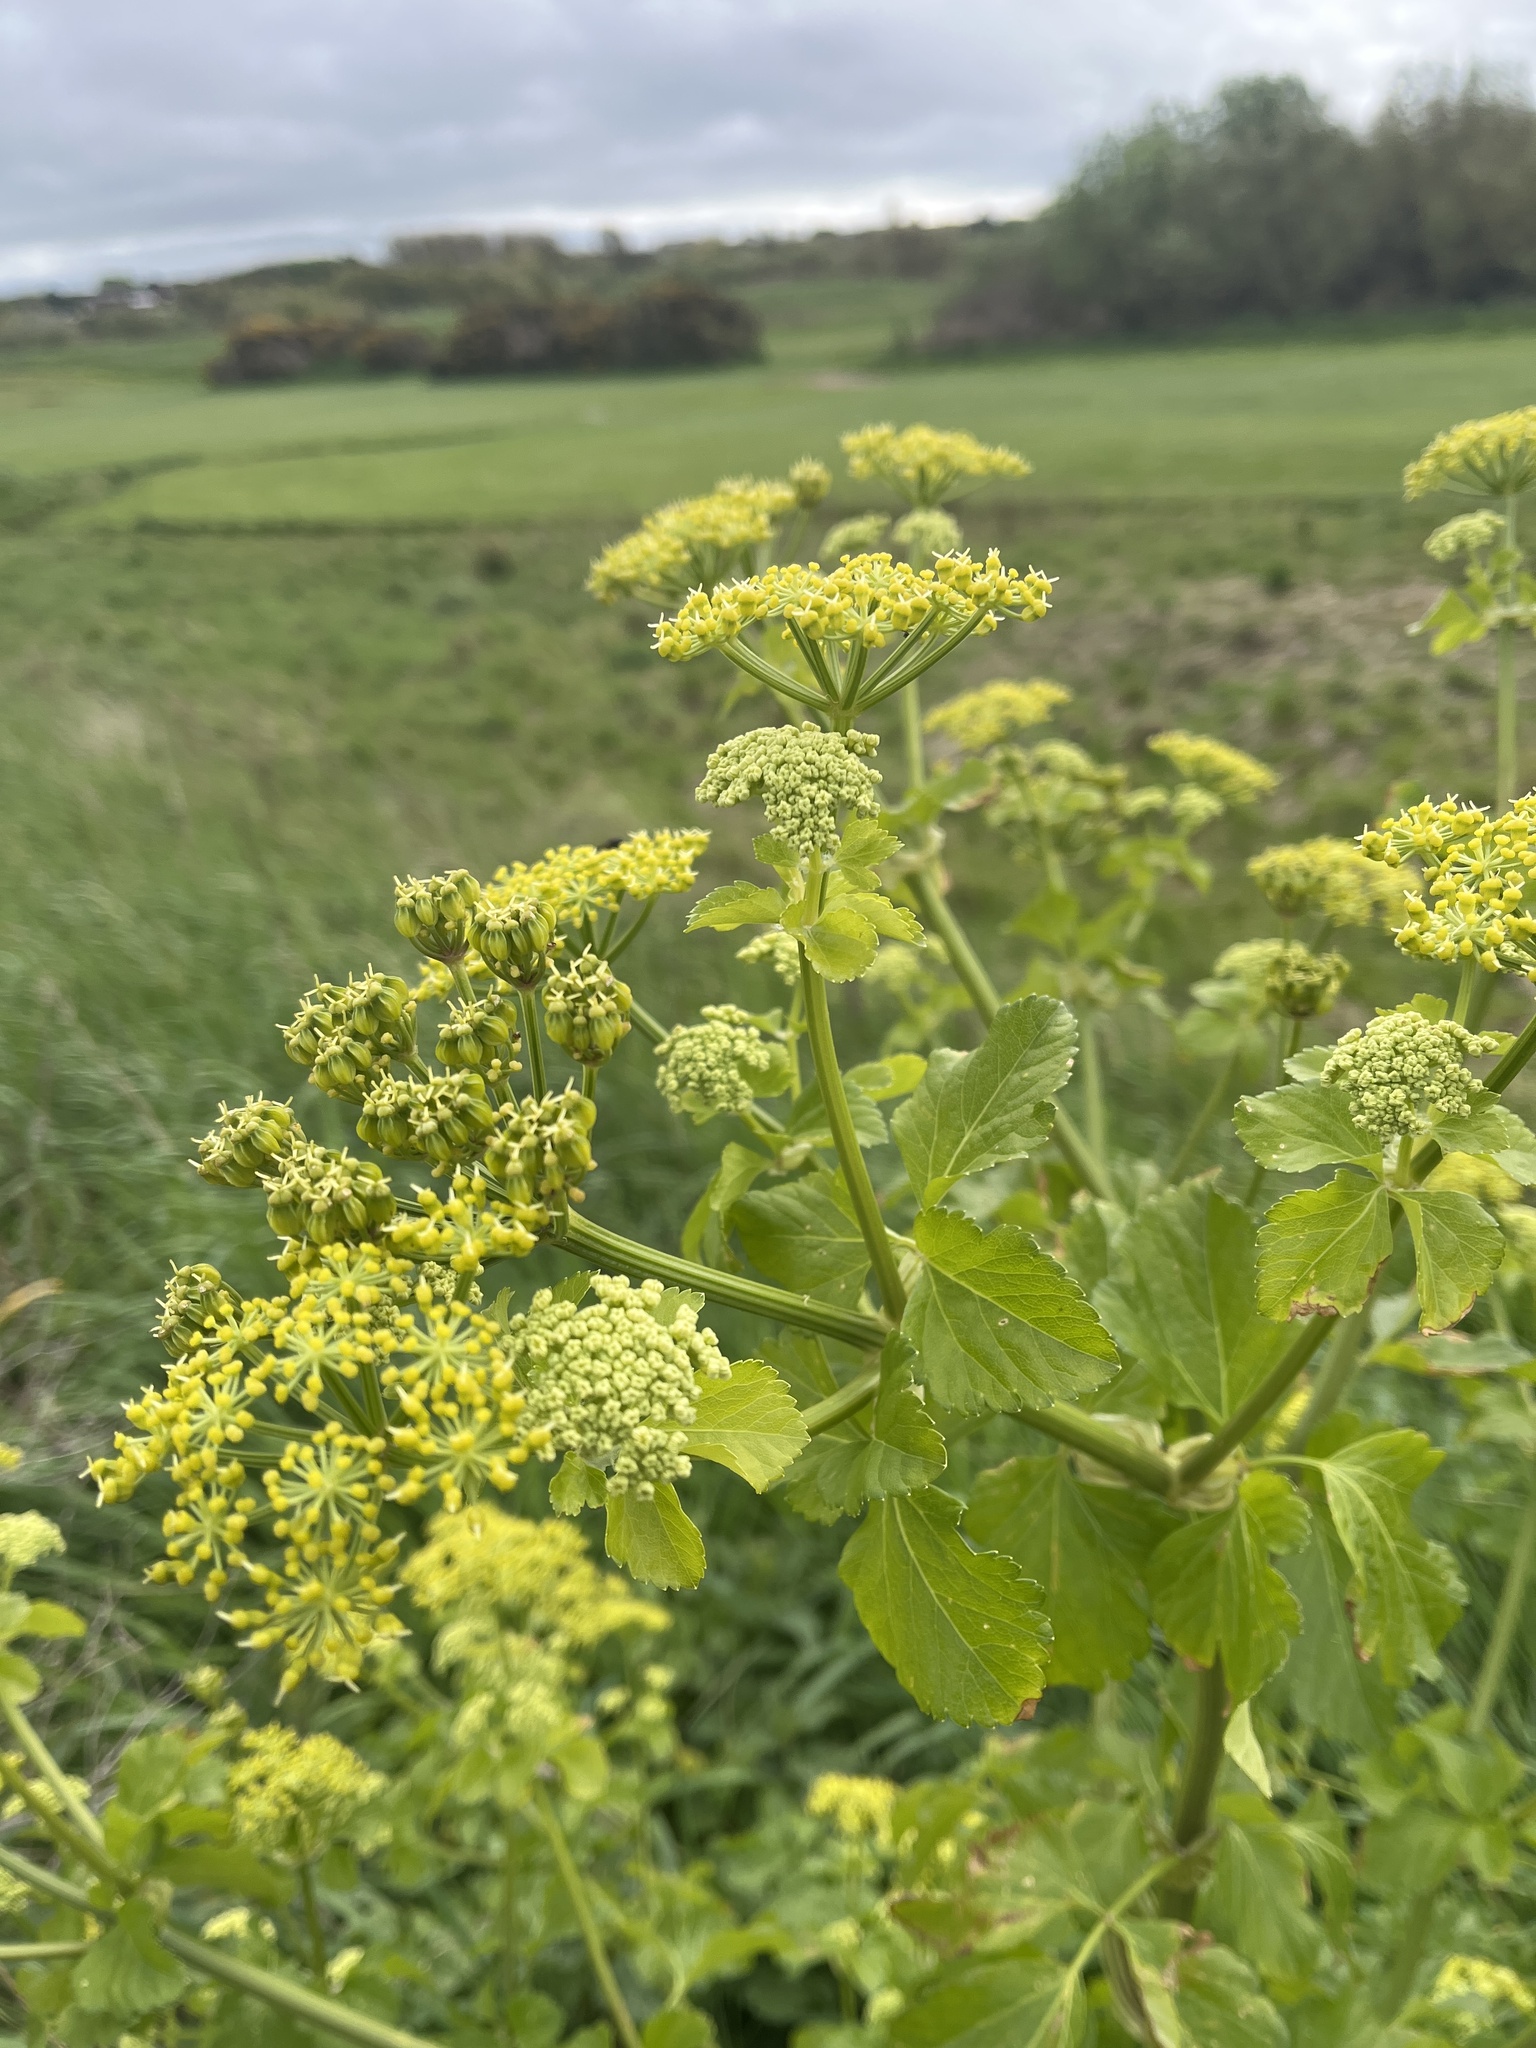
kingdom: Plantae
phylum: Tracheophyta
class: Magnoliopsida
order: Apiales
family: Apiaceae
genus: Smyrnium
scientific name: Smyrnium olusatrum
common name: Alexanders
